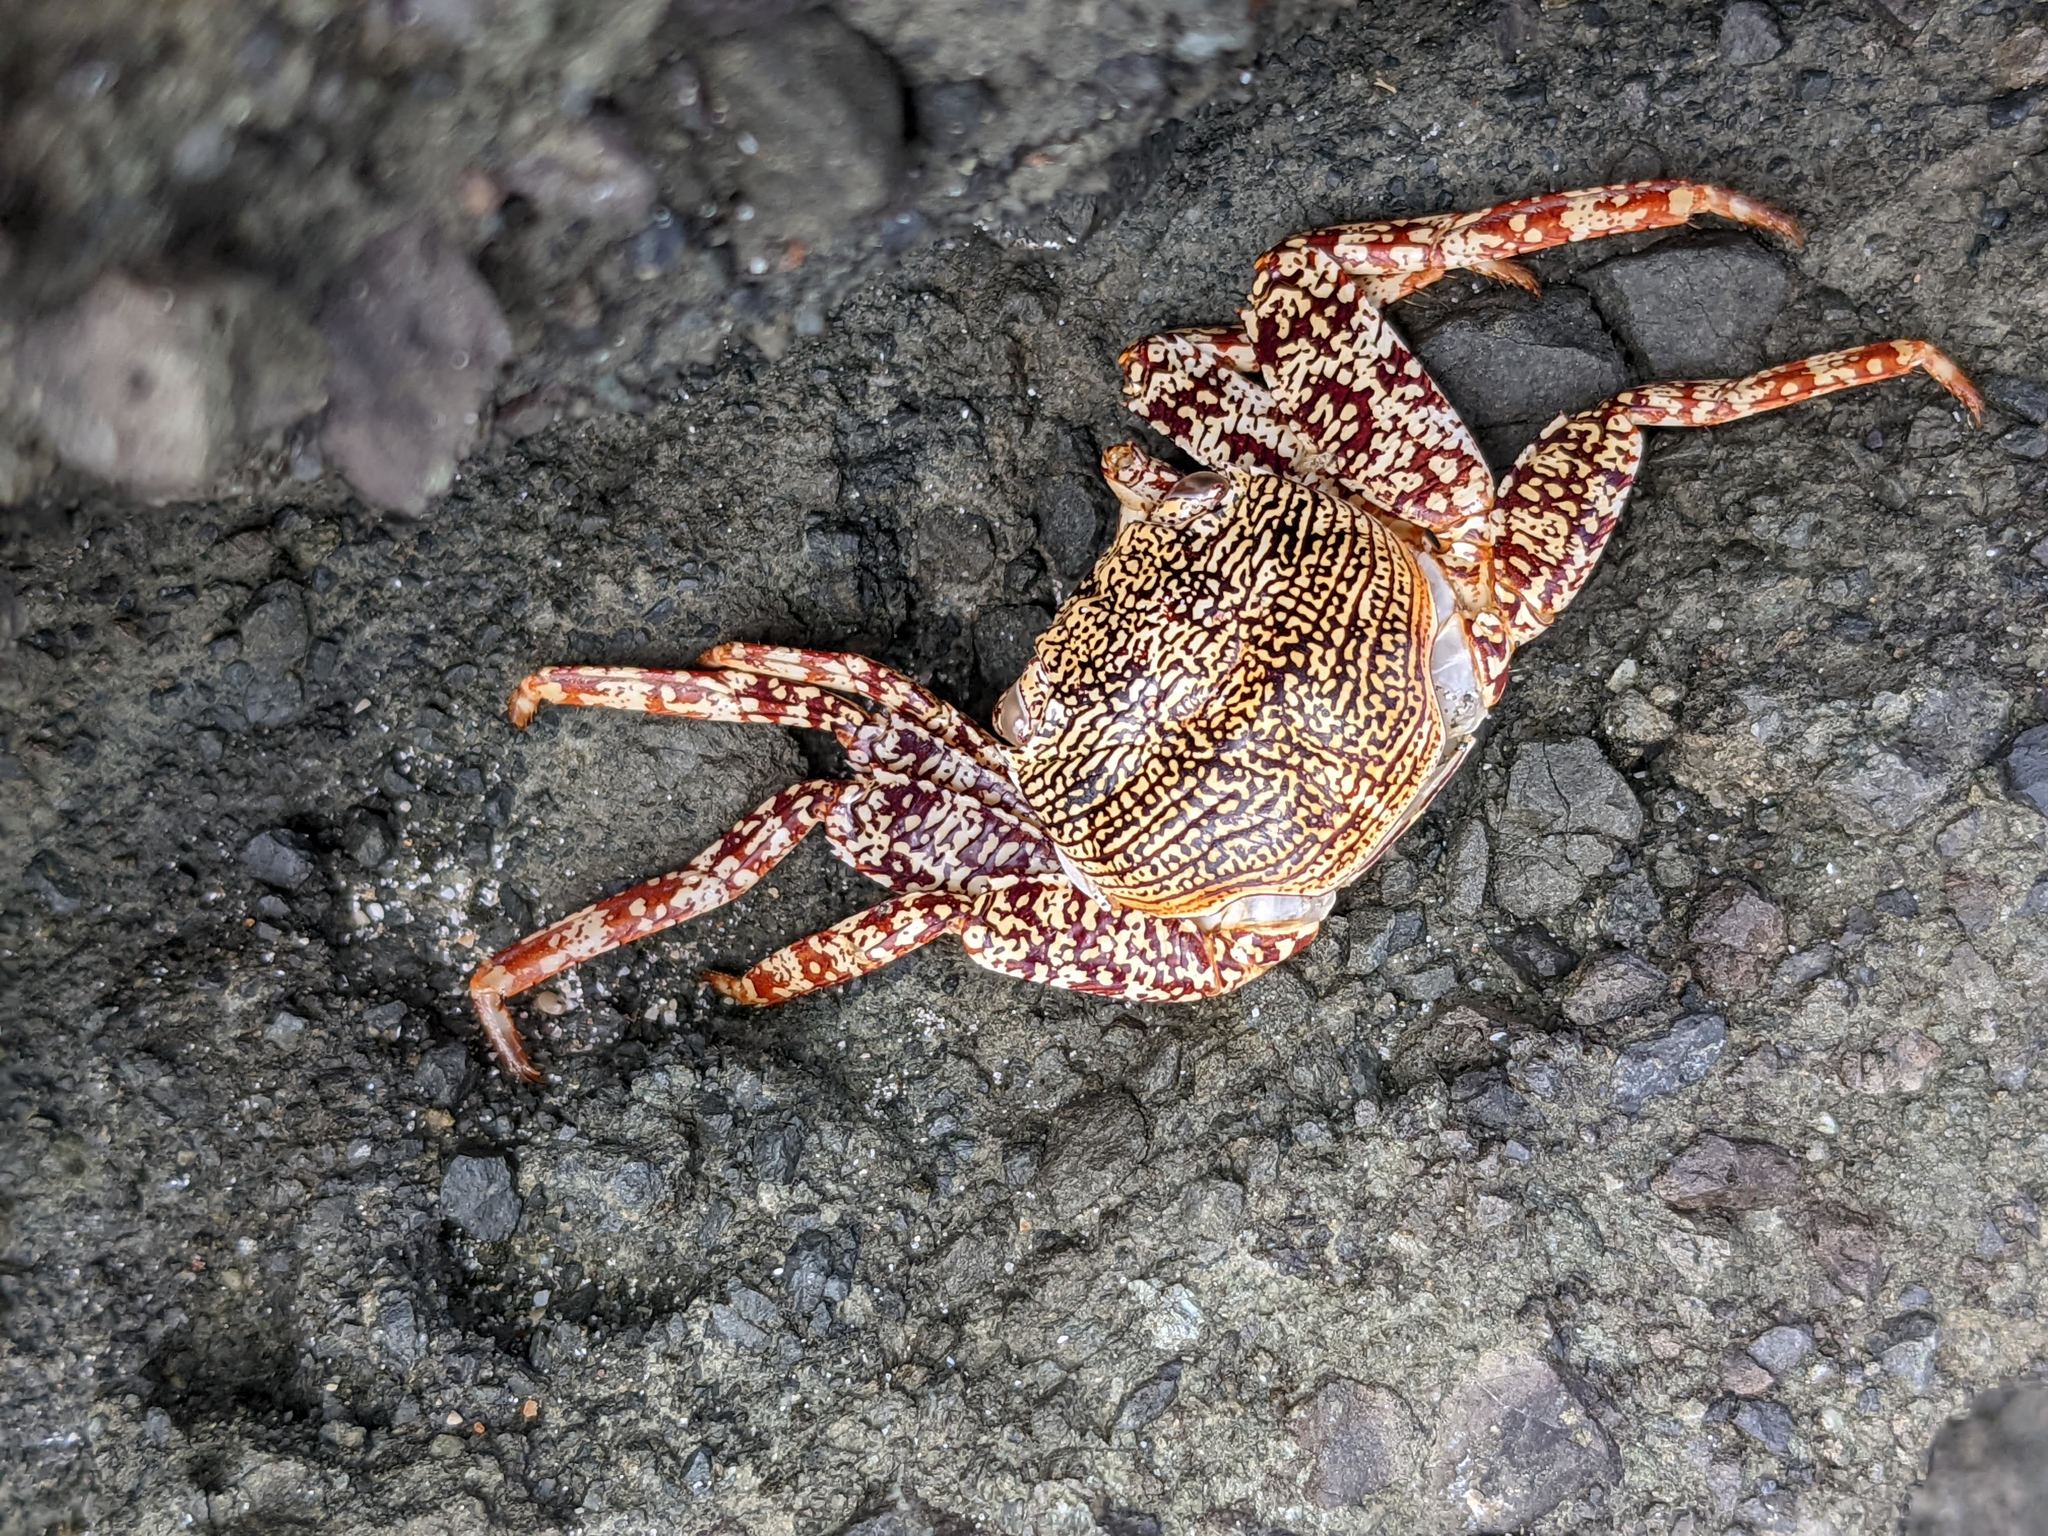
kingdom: Animalia
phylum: Arthropoda
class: Malacostraca
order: Decapoda
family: Grapsidae
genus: Grapsus
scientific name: Grapsus grapsus
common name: Sally lightfoot
